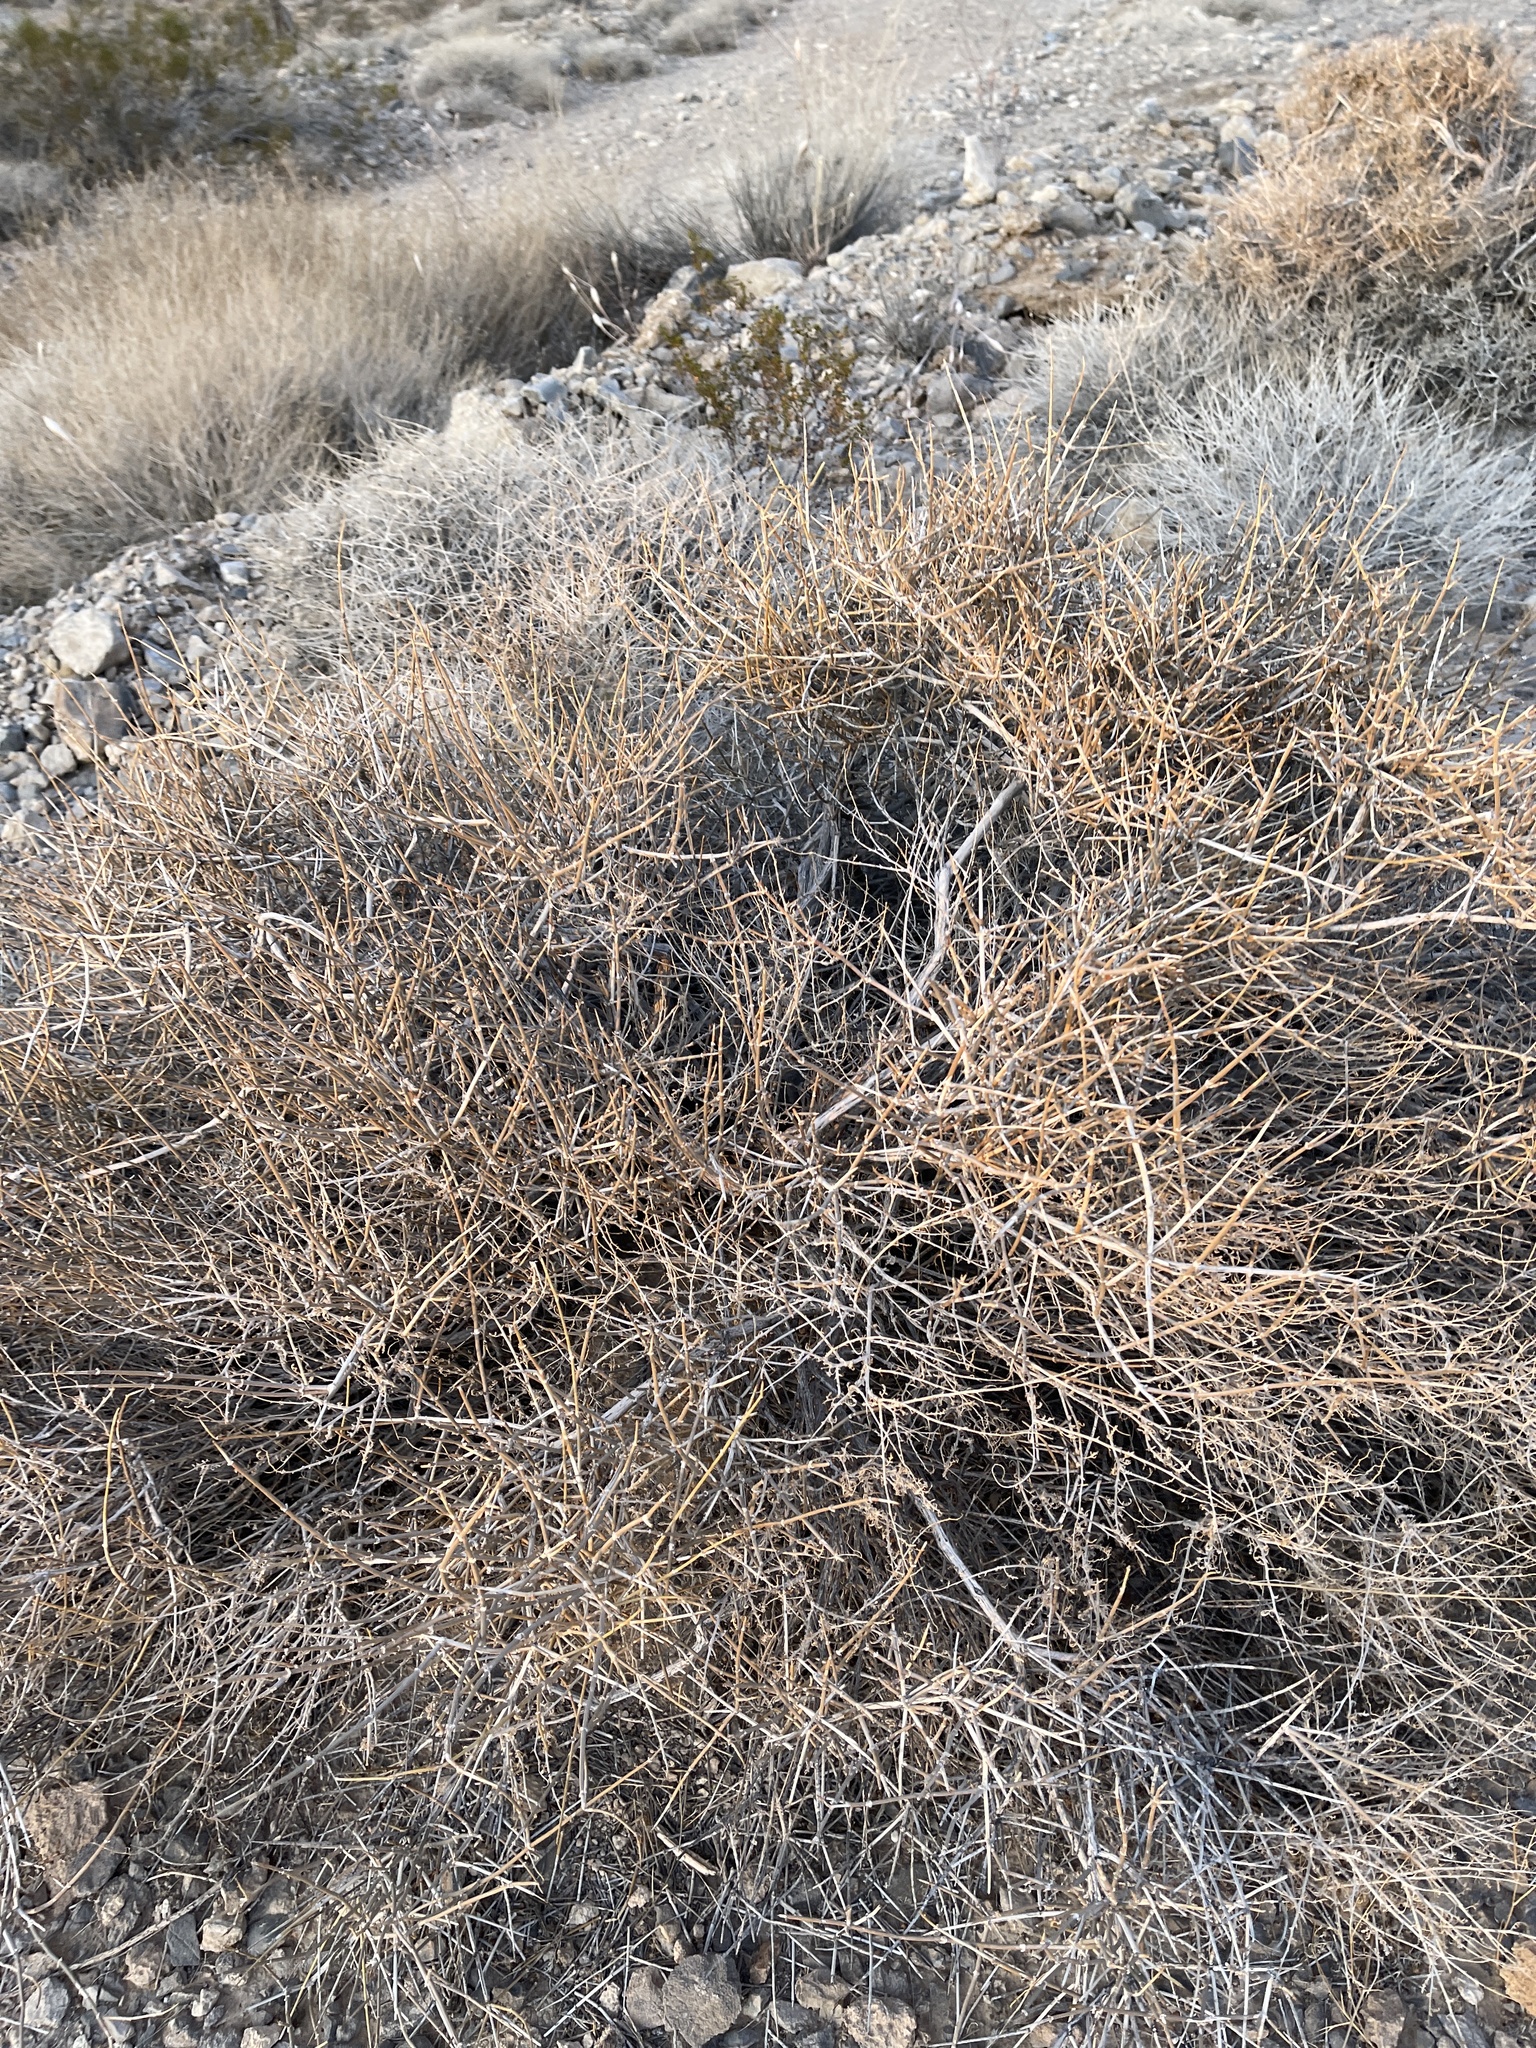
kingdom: Plantae
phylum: Tracheophyta
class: Gnetopsida
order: Ephedrales
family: Ephedraceae
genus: Ephedra
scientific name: Ephedra nevadensis
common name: Gray ephedra
